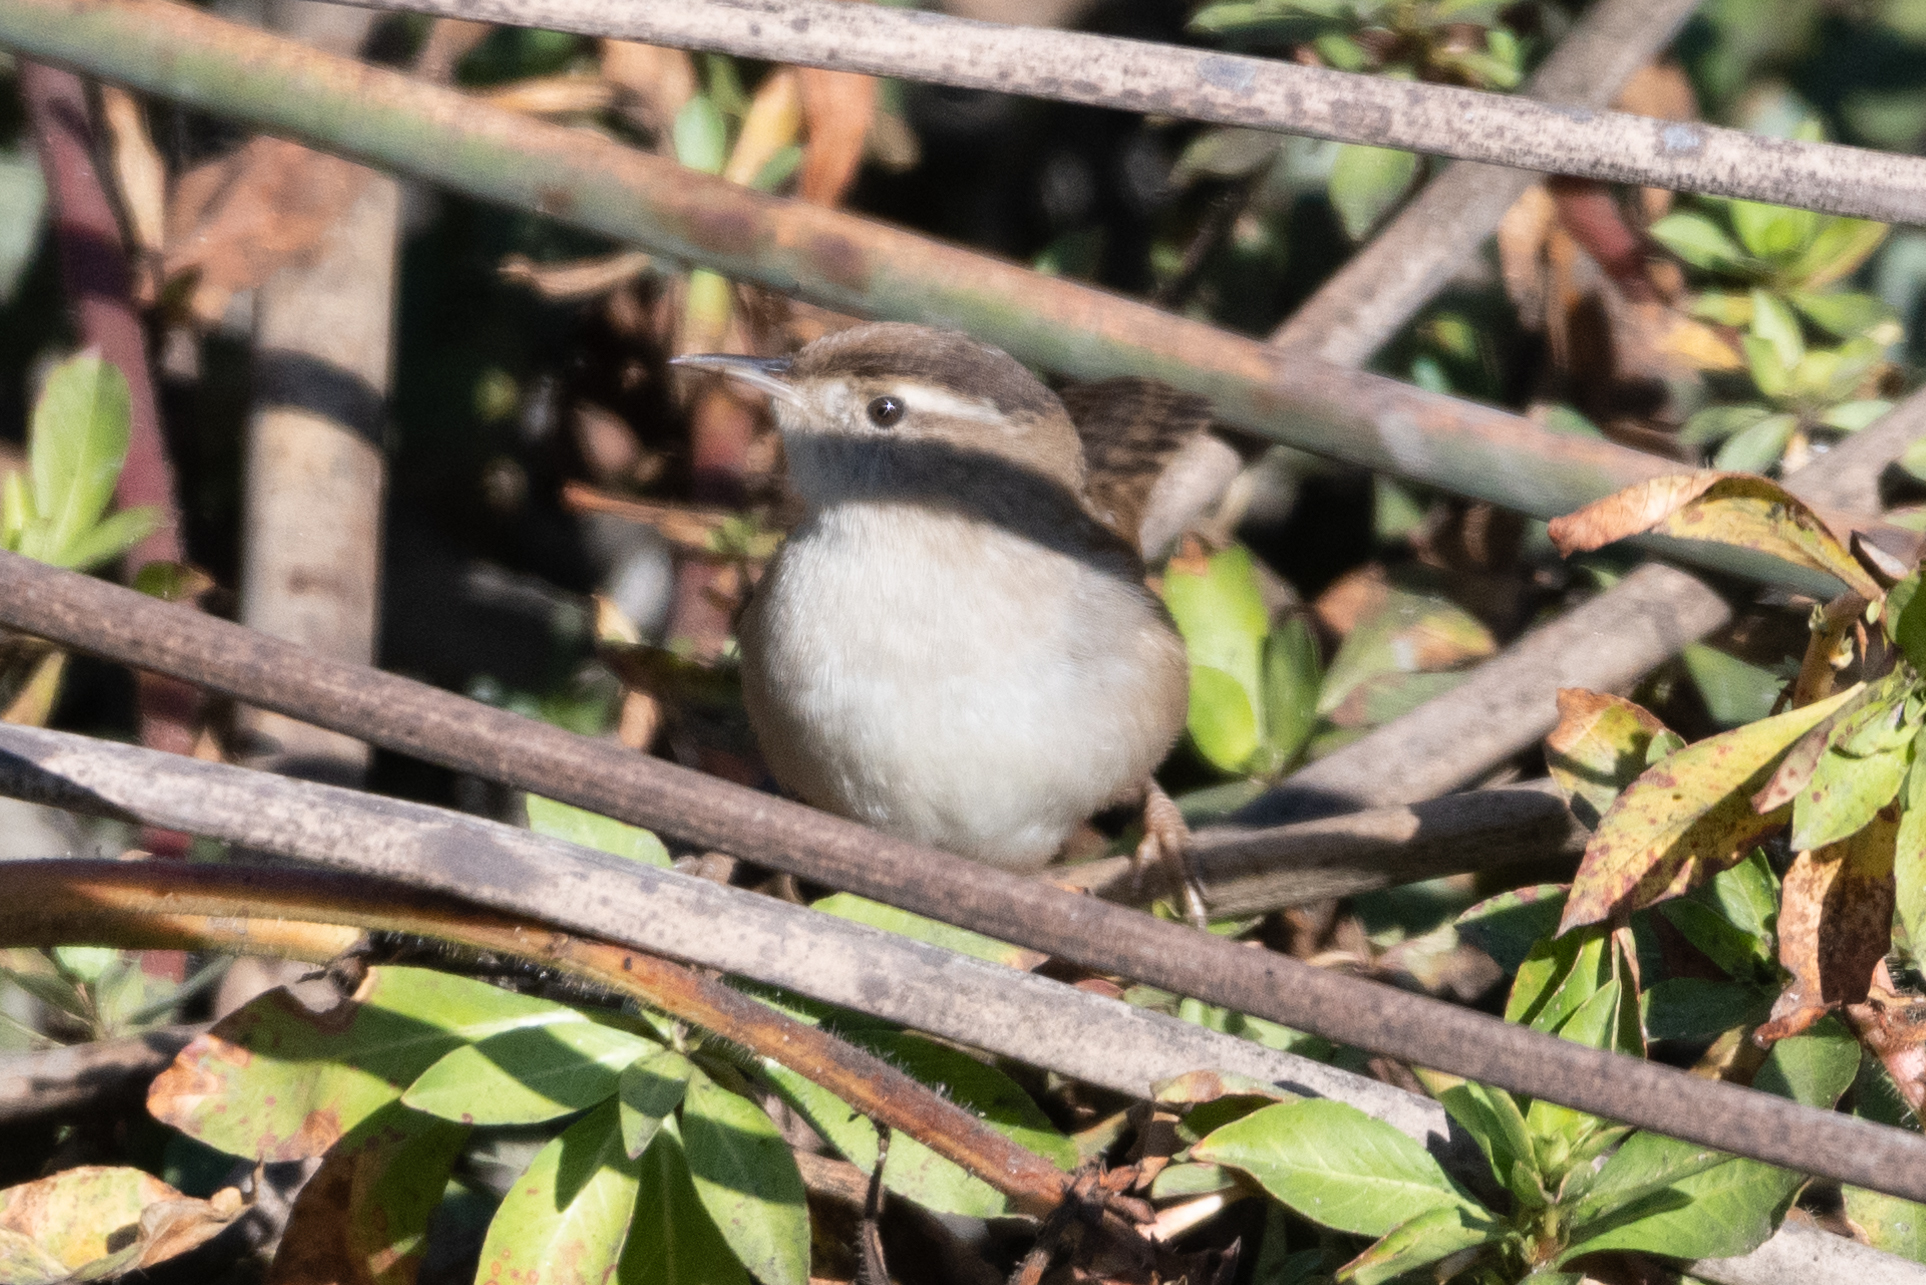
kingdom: Animalia
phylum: Chordata
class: Aves
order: Passeriformes
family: Troglodytidae
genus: Cistothorus
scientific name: Cistothorus palustris
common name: Marsh wren
